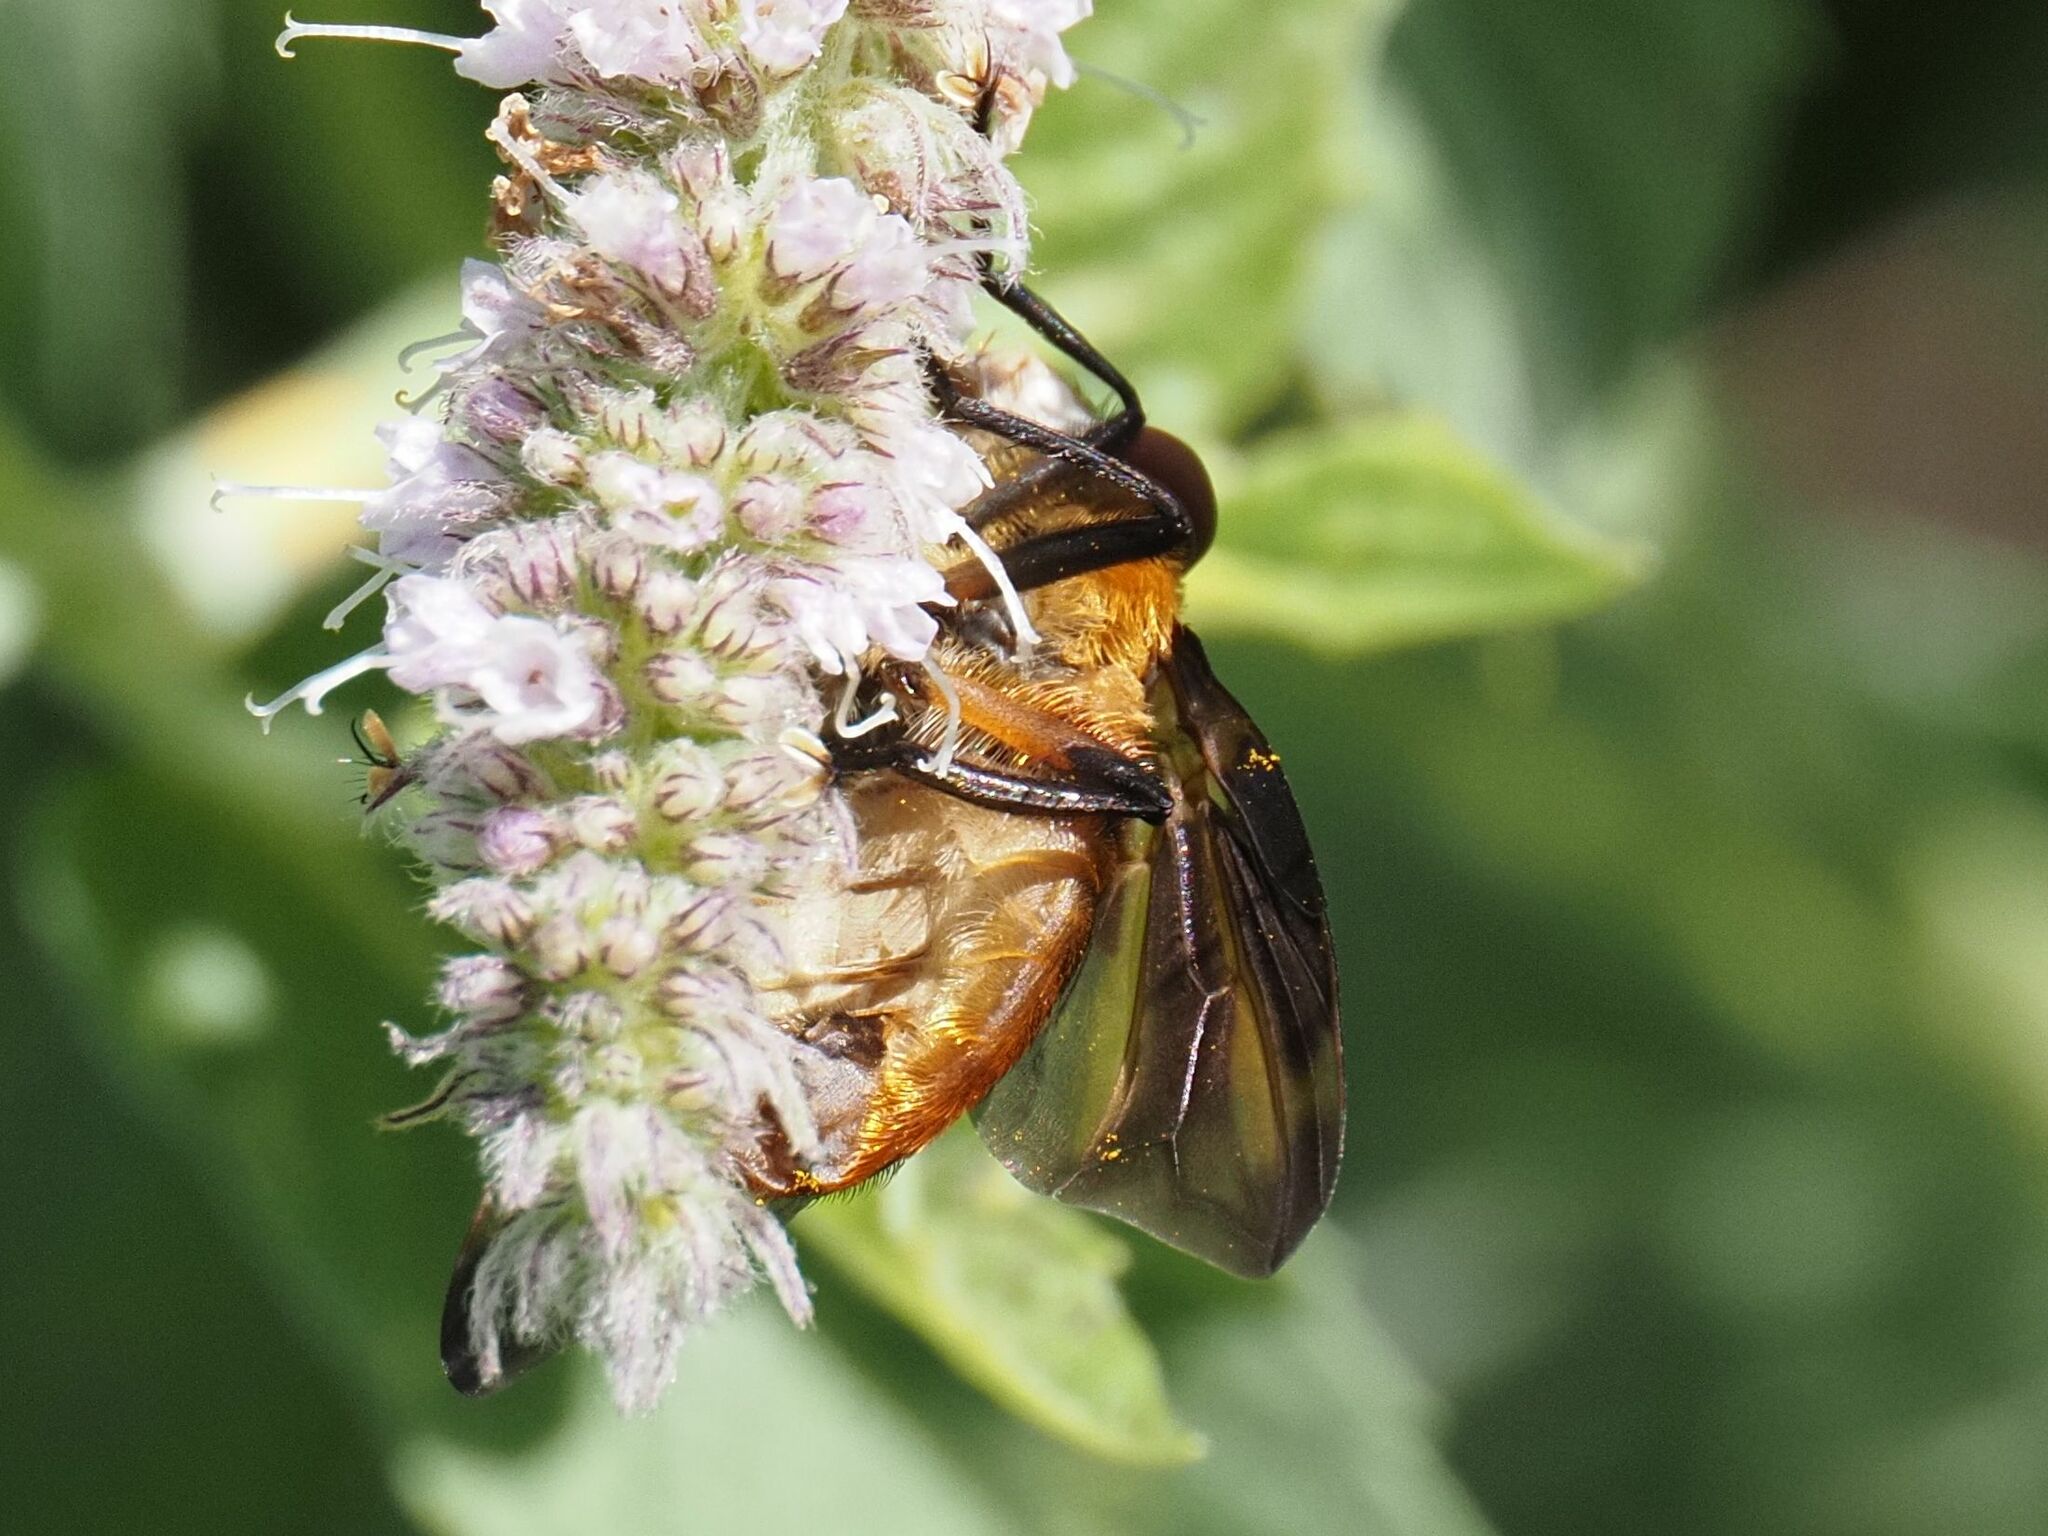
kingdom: Animalia
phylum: Arthropoda
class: Insecta
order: Diptera
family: Tachinidae
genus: Phasia
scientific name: Phasia hemiptera
